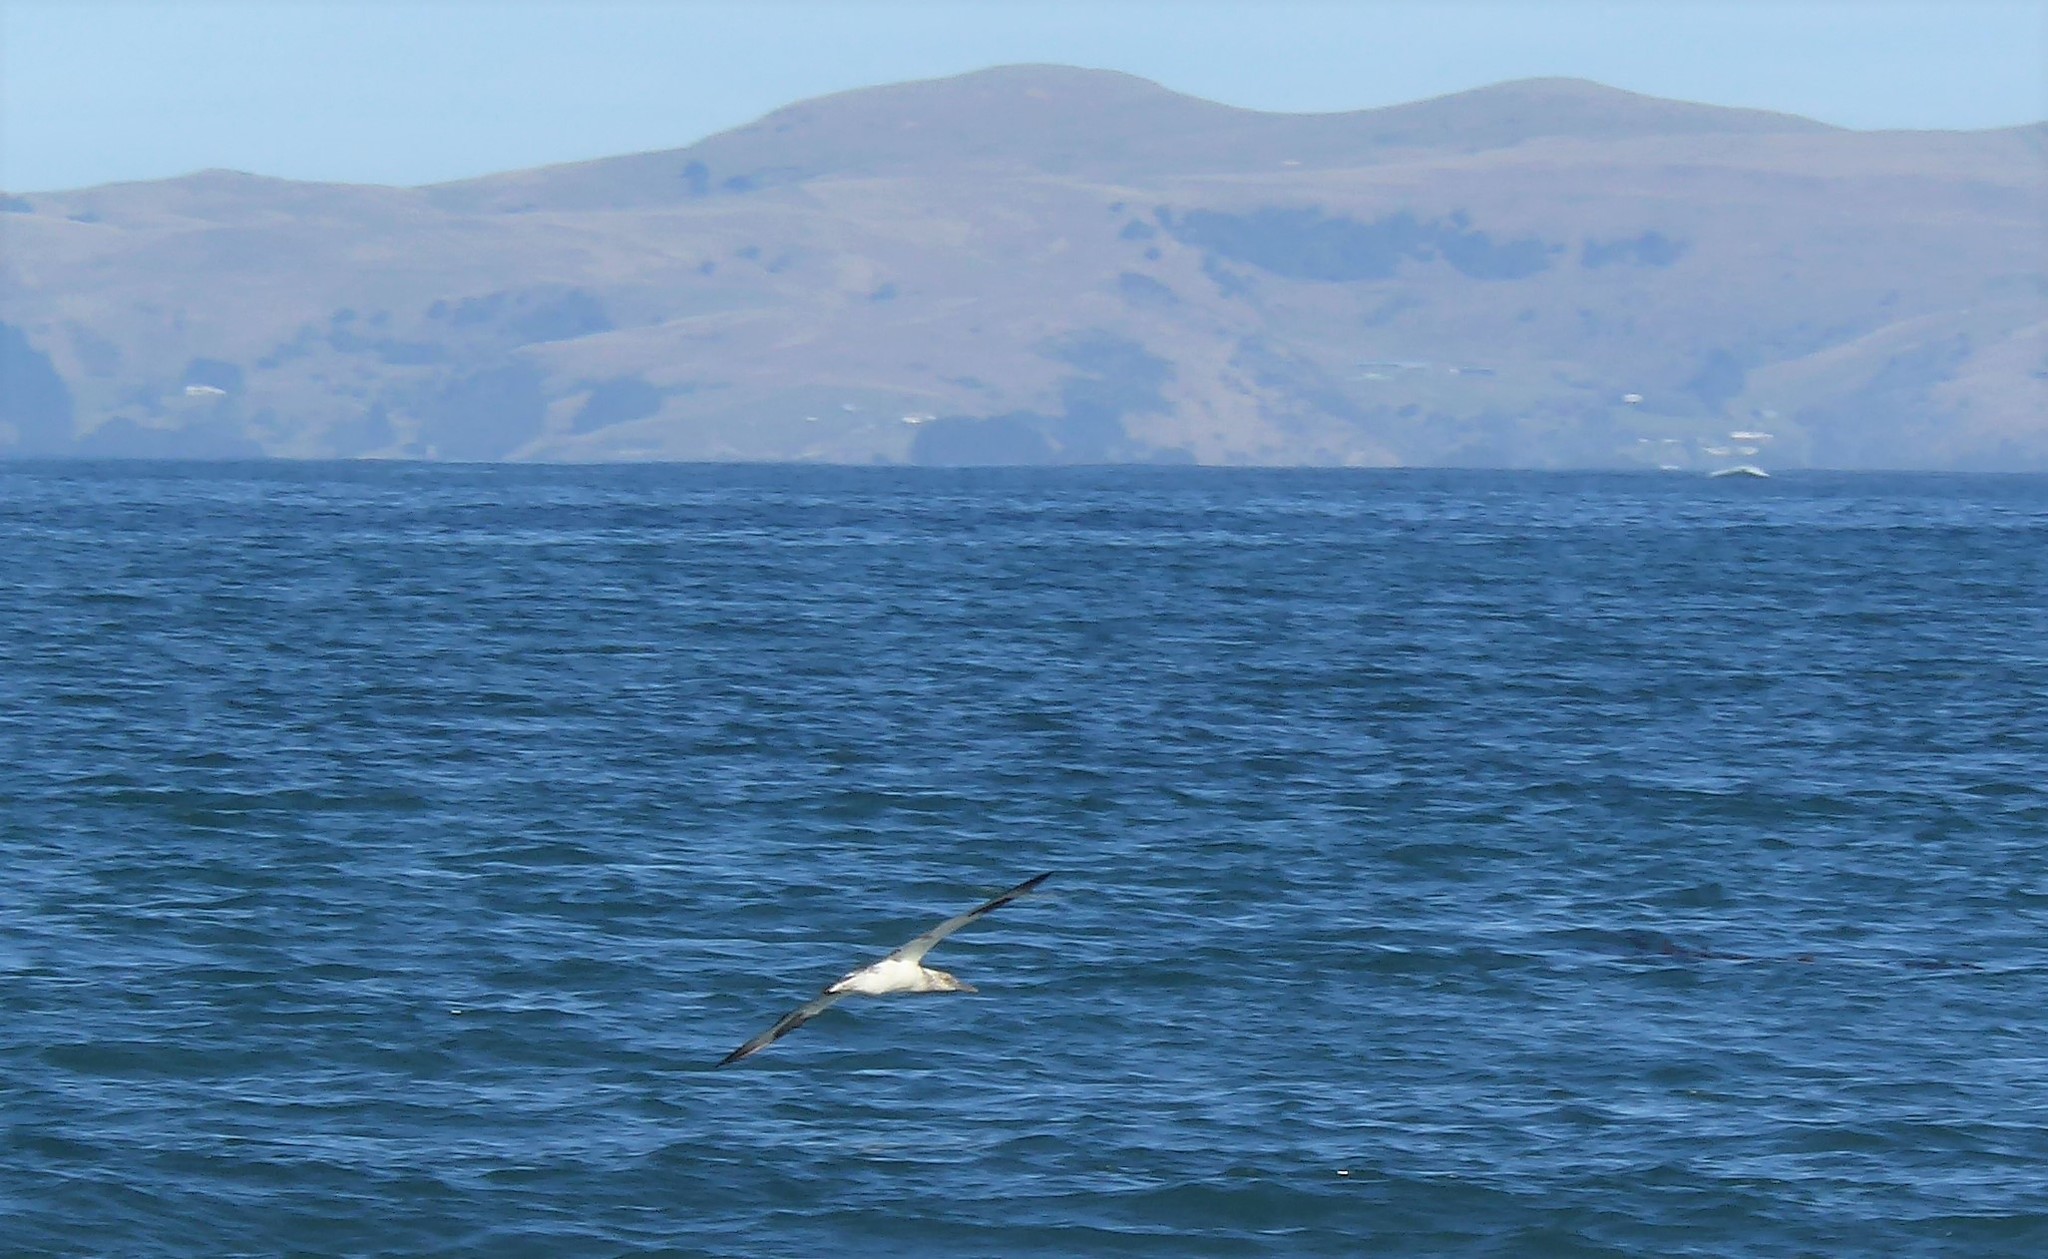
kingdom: Animalia
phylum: Chordata
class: Aves
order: Suliformes
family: Sulidae
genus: Morus
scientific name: Morus serrator
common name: Australasian gannet
